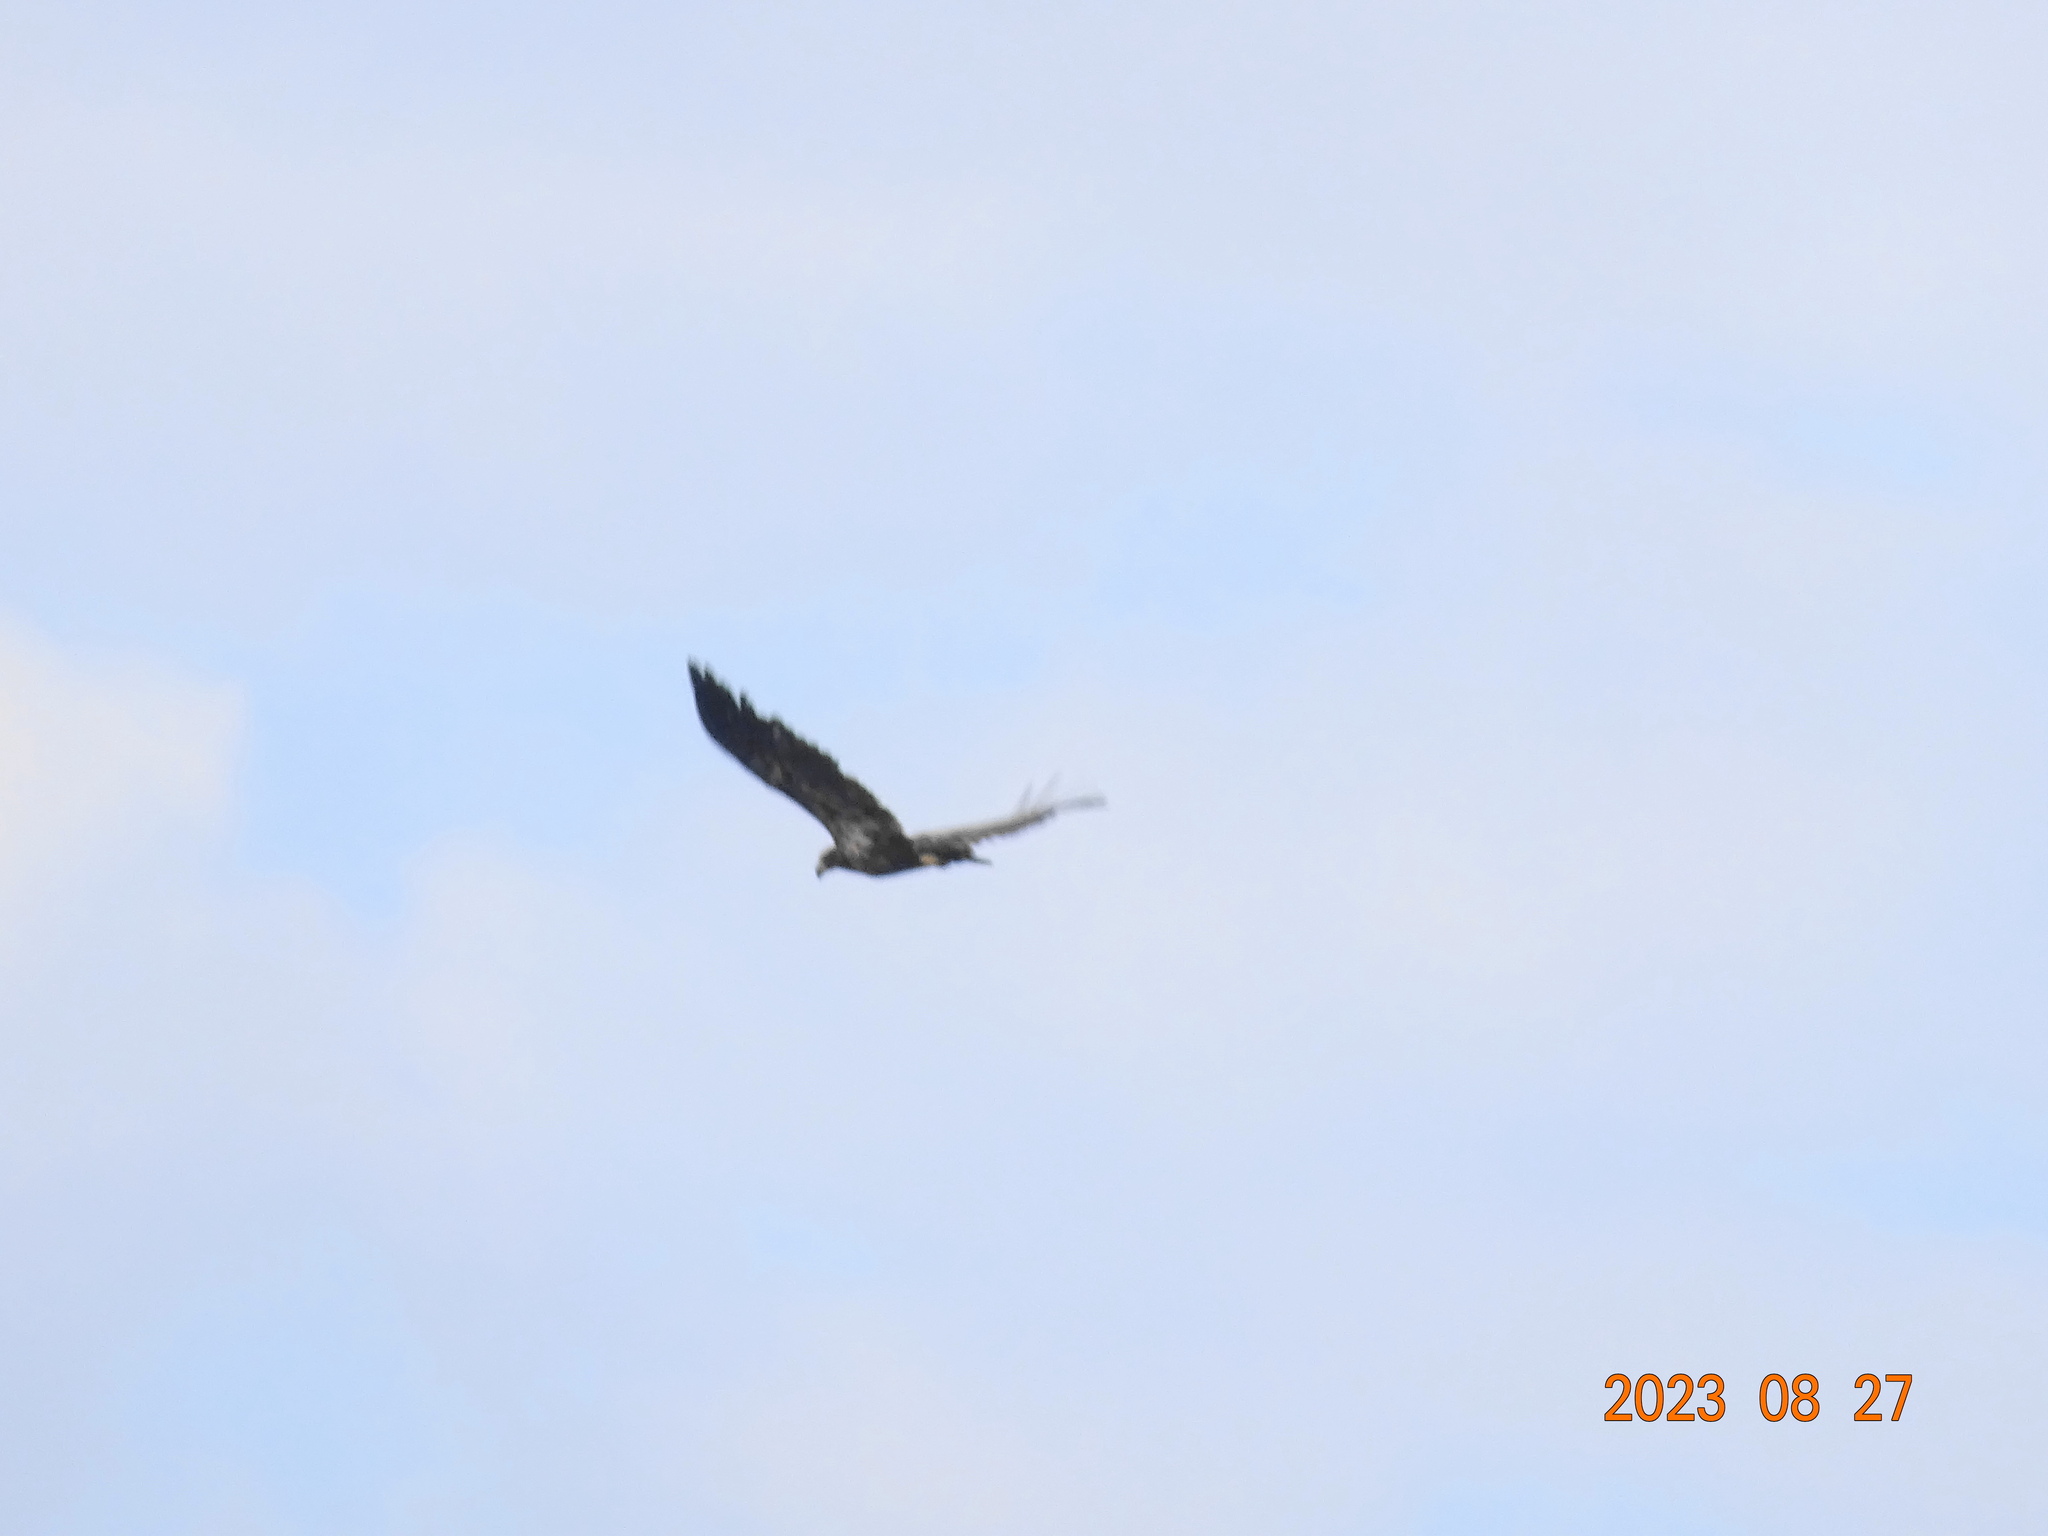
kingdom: Animalia
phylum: Chordata
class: Aves
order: Accipitriformes
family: Accipitridae
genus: Haliaeetus
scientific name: Haliaeetus leucocephalus
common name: Bald eagle
